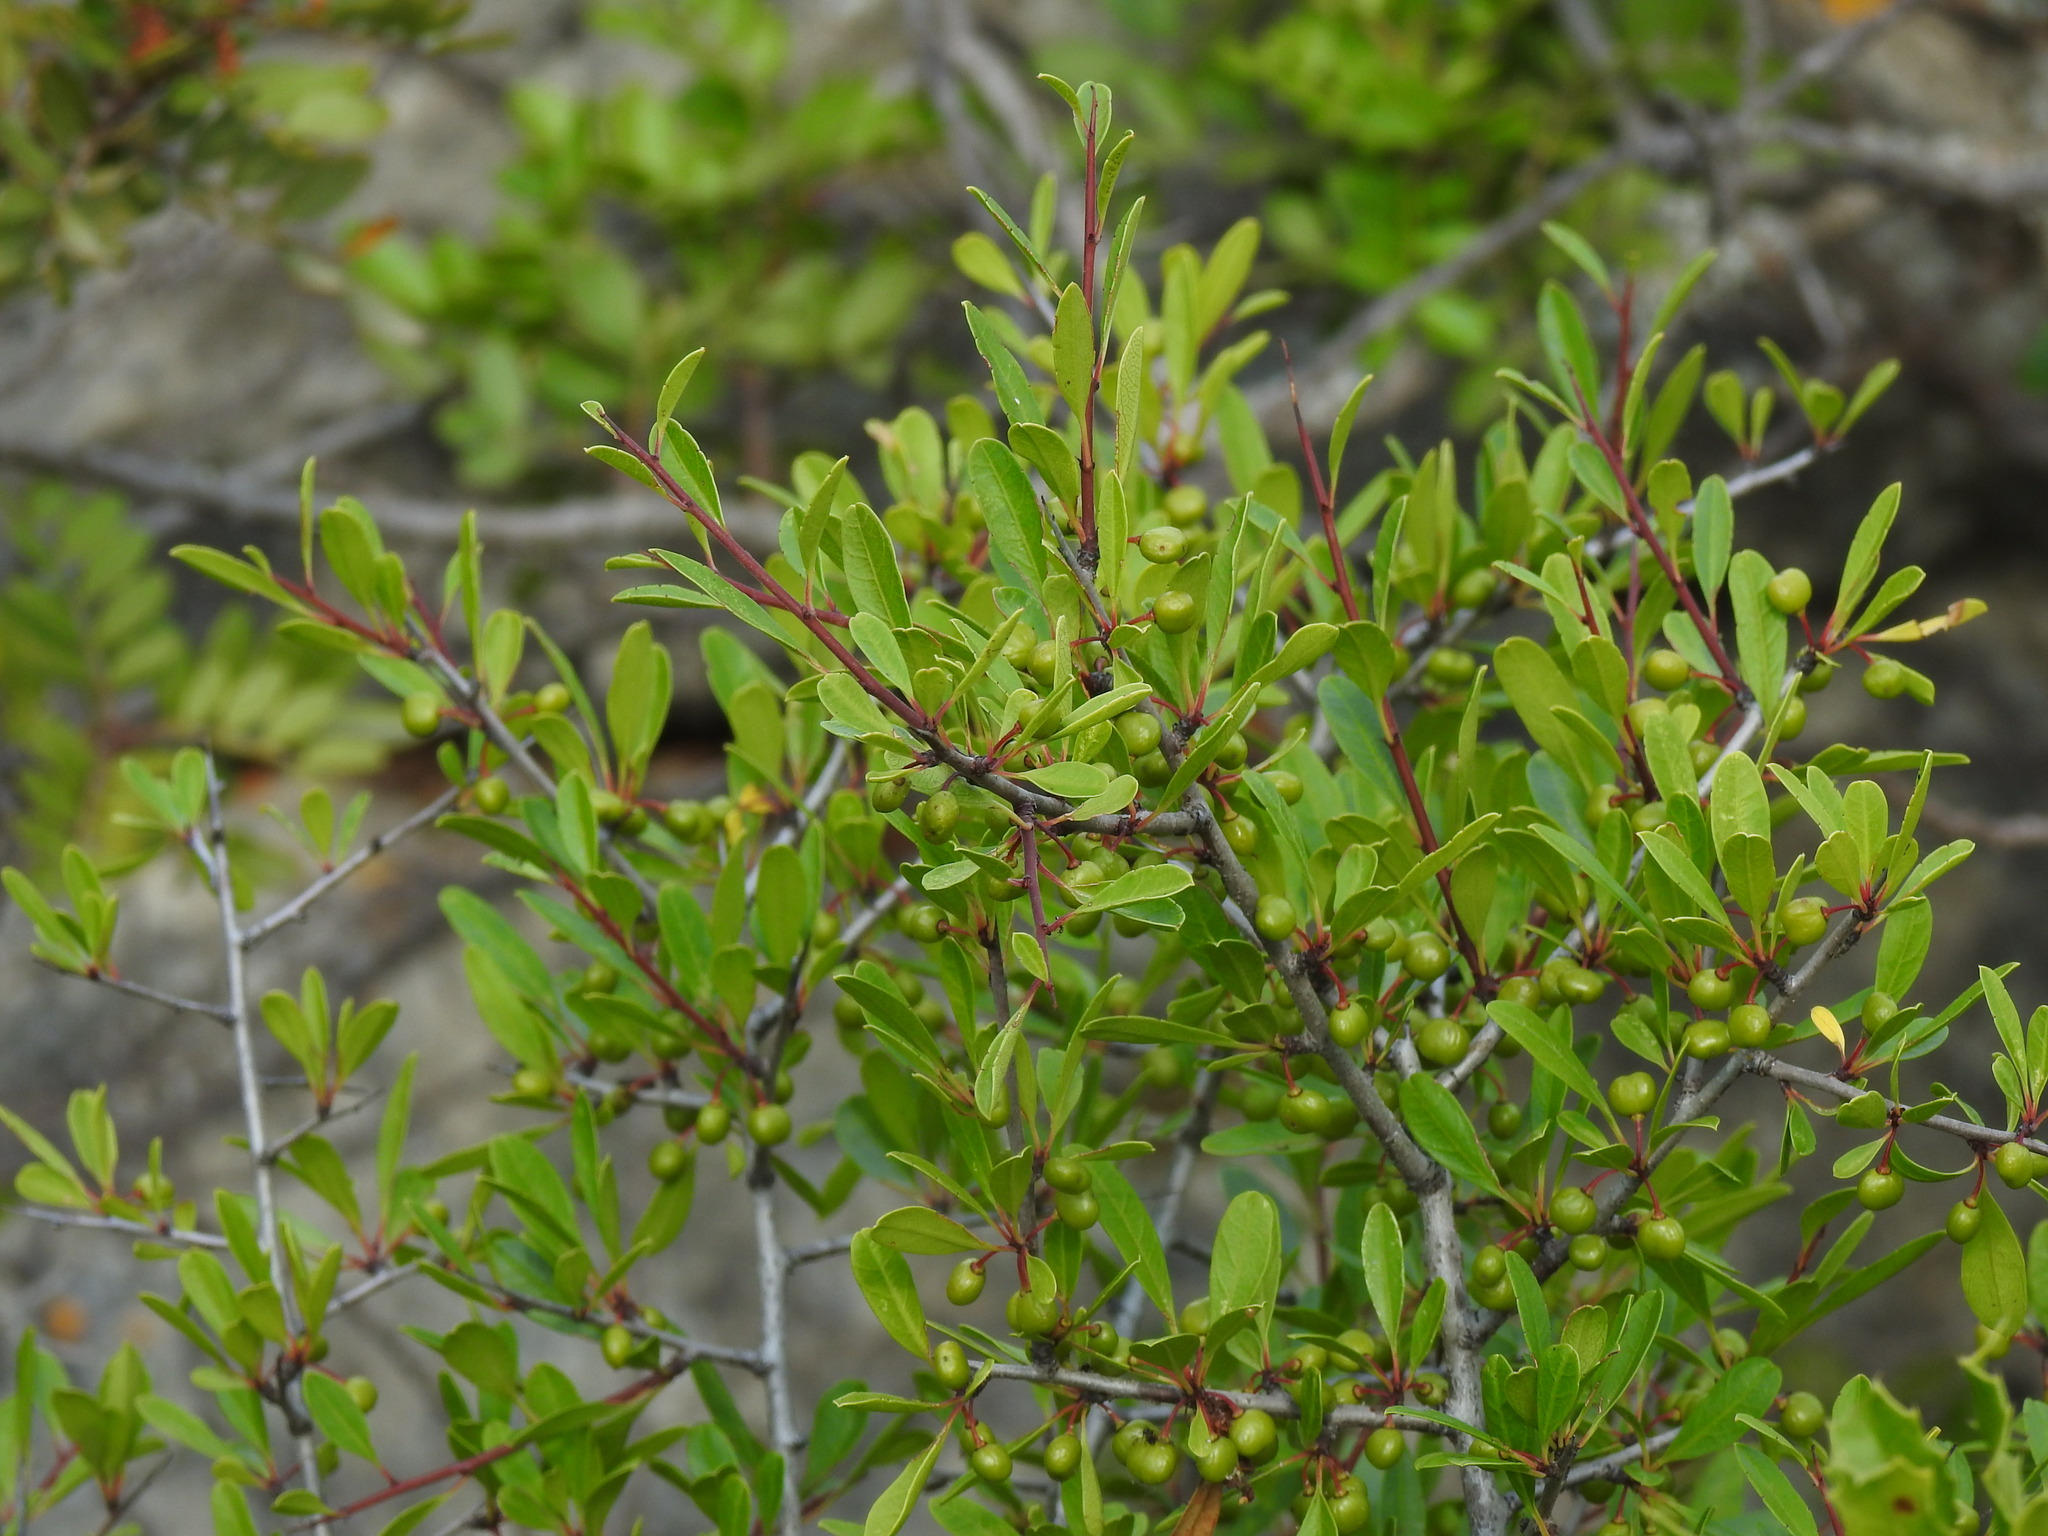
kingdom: Plantae
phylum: Tracheophyta
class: Magnoliopsida
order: Rosales
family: Rhamnaceae
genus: Rhamnus
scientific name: Rhamnus oleoides
